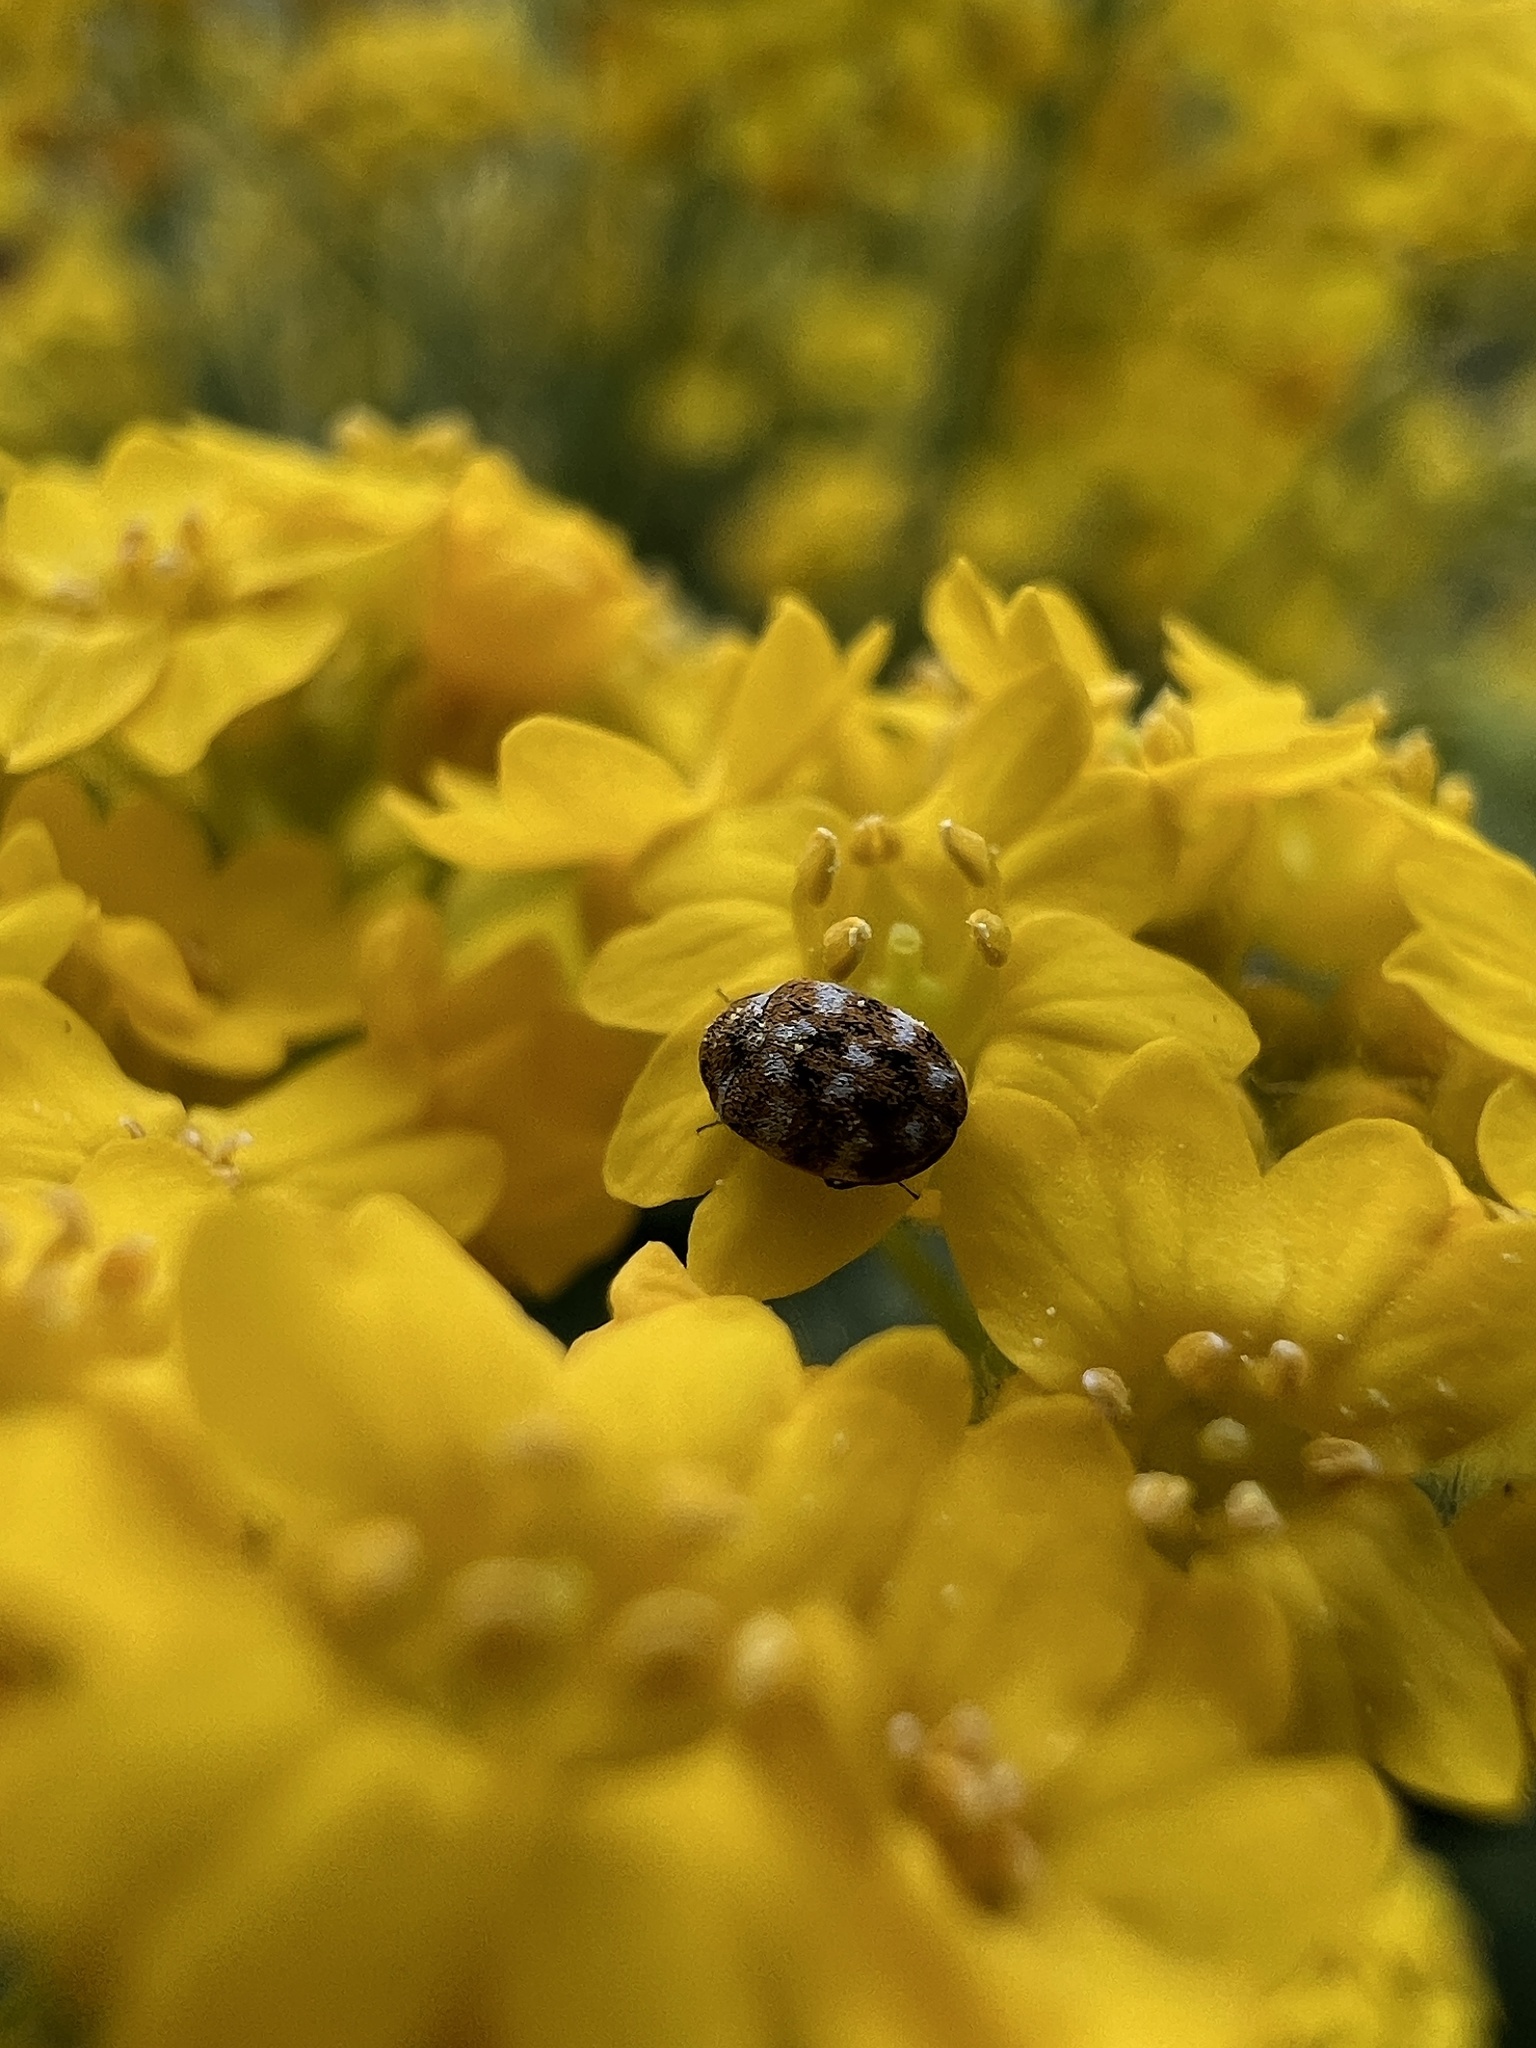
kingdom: Animalia
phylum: Arthropoda
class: Insecta
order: Coleoptera
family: Dermestidae
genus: Anthrenus
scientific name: Anthrenus verbasci
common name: Varied carpet beetle
